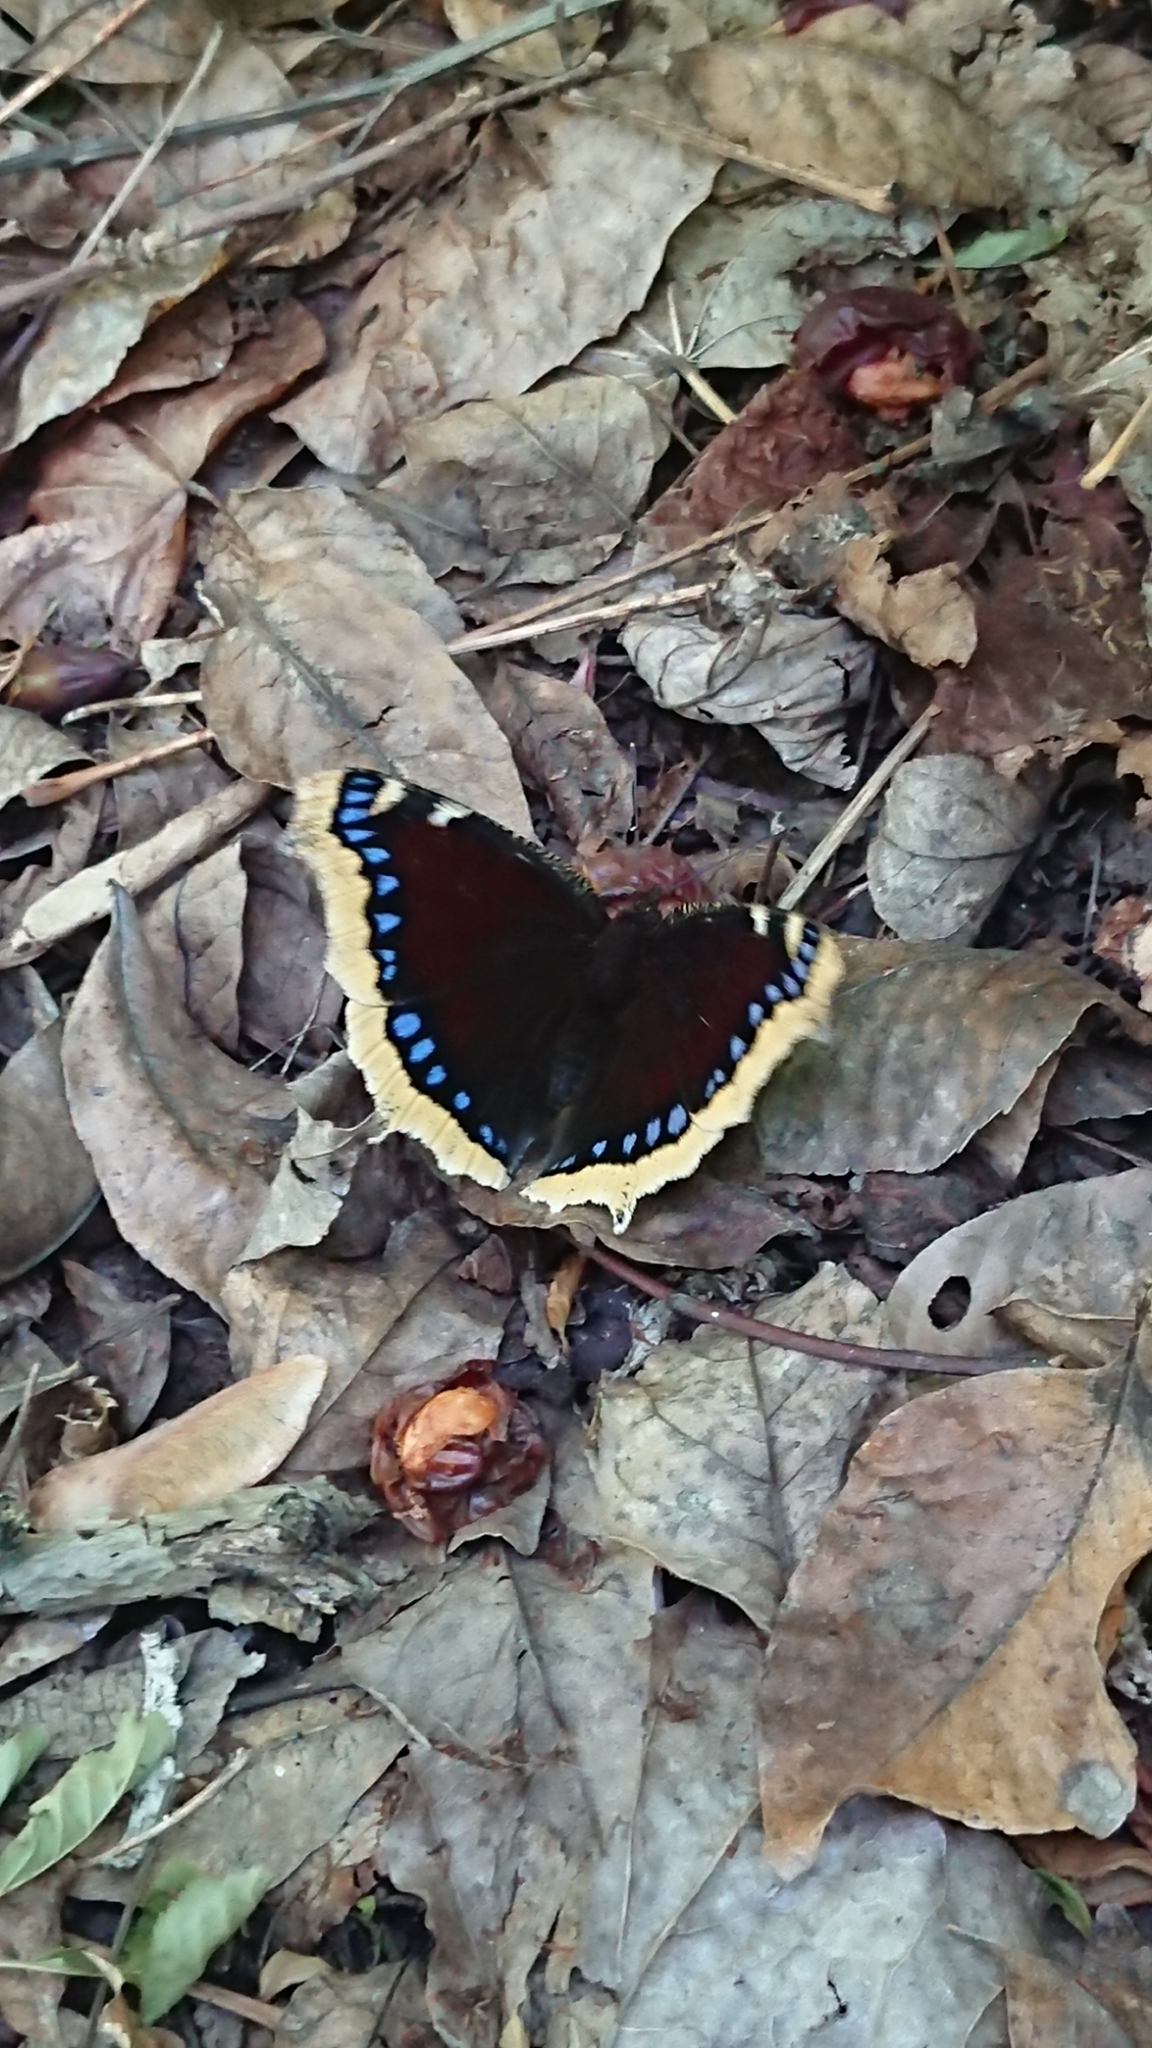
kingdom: Animalia
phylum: Arthropoda
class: Insecta
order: Lepidoptera
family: Nymphalidae
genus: Nymphalis
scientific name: Nymphalis antiopa
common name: Camberwell beauty
